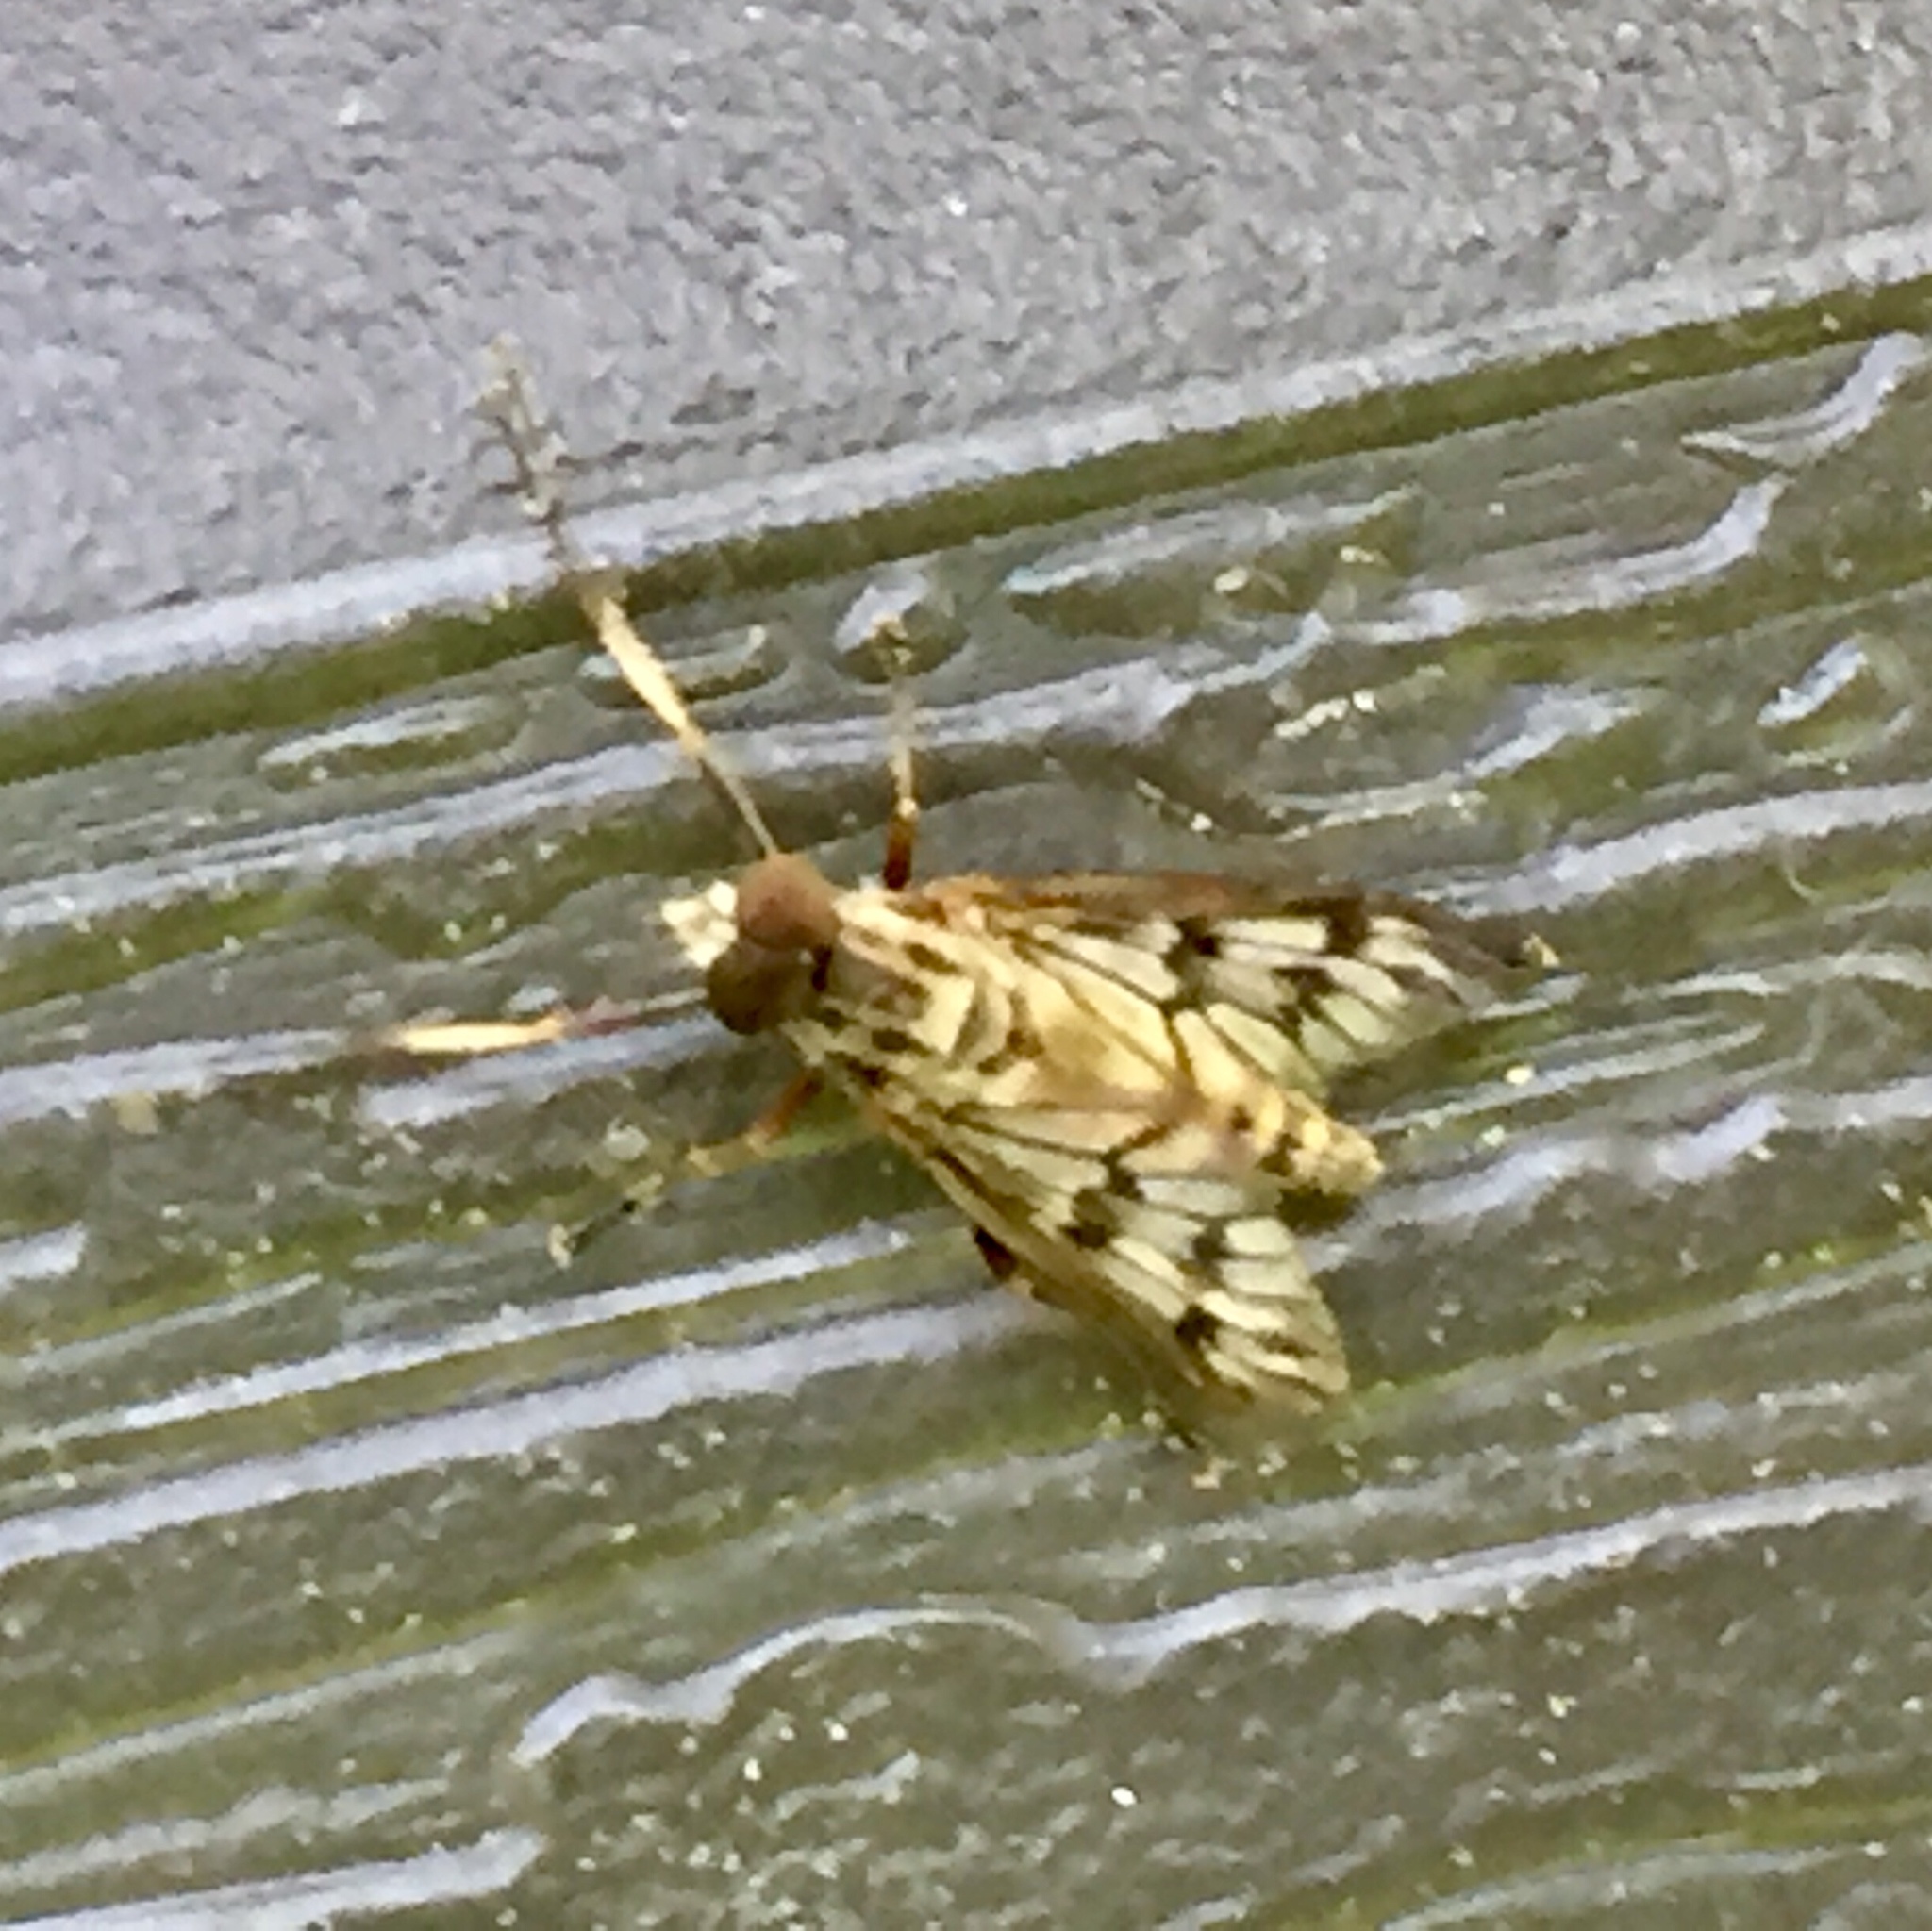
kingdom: Animalia
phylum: Arthropoda
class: Insecta
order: Diptera
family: Rhagionidae
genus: Rhagio
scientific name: Rhagio mystaceus
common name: Common snipe fly
